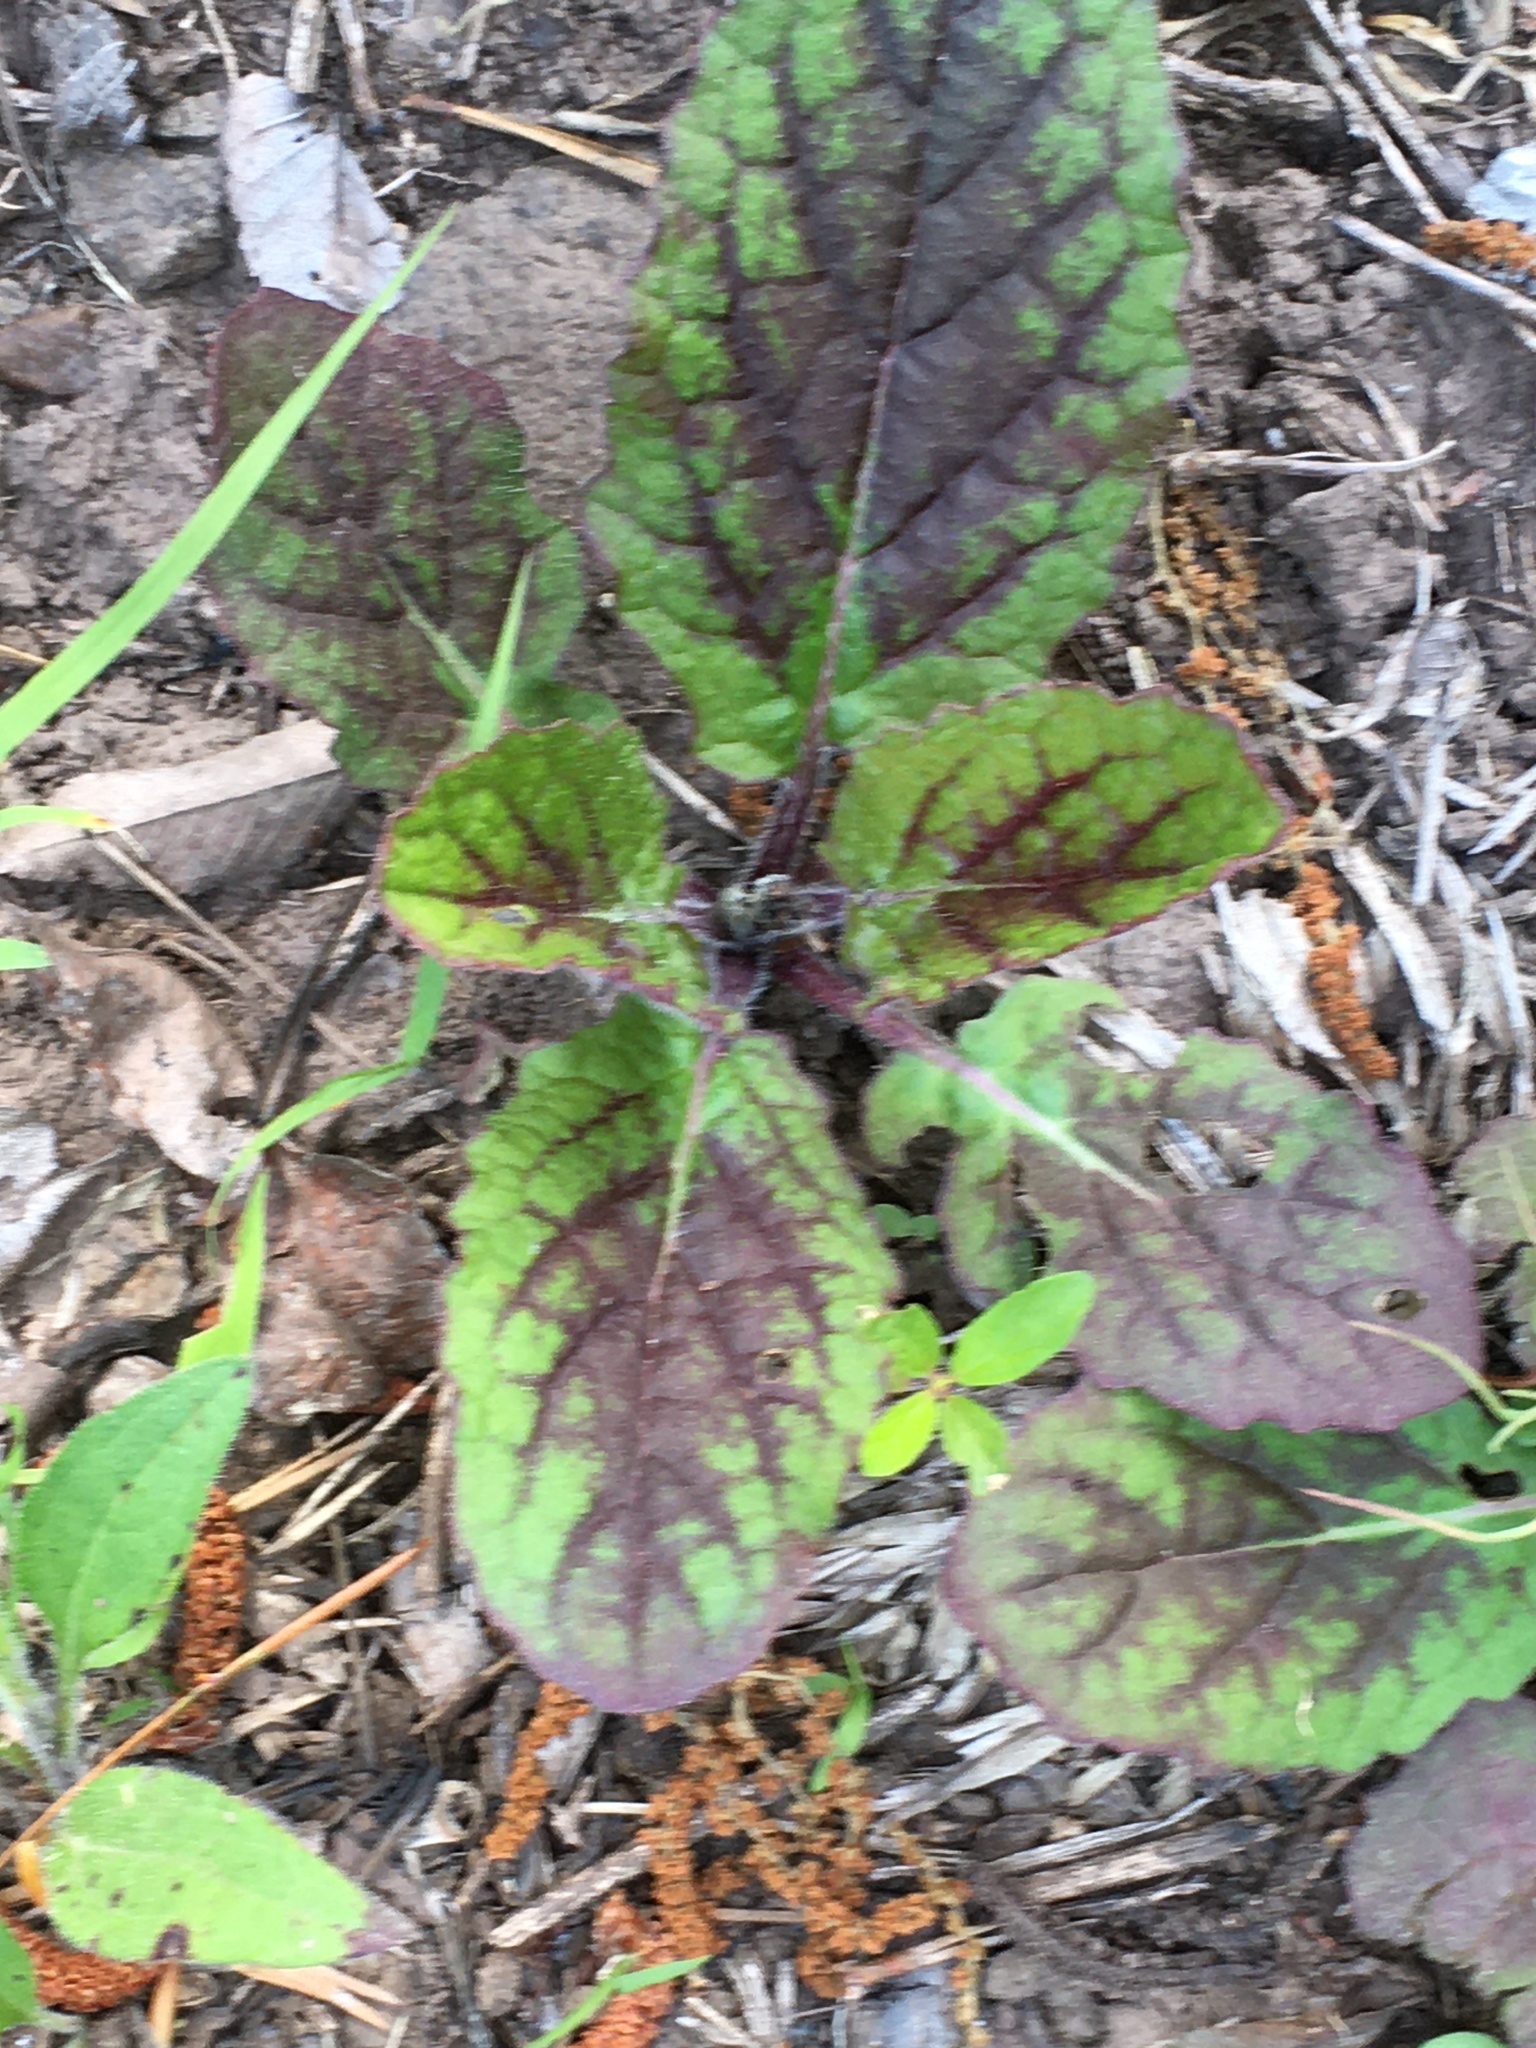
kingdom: Plantae
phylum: Tracheophyta
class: Magnoliopsida
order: Lamiales
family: Lamiaceae
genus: Salvia
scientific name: Salvia lyrata
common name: Cancerweed
